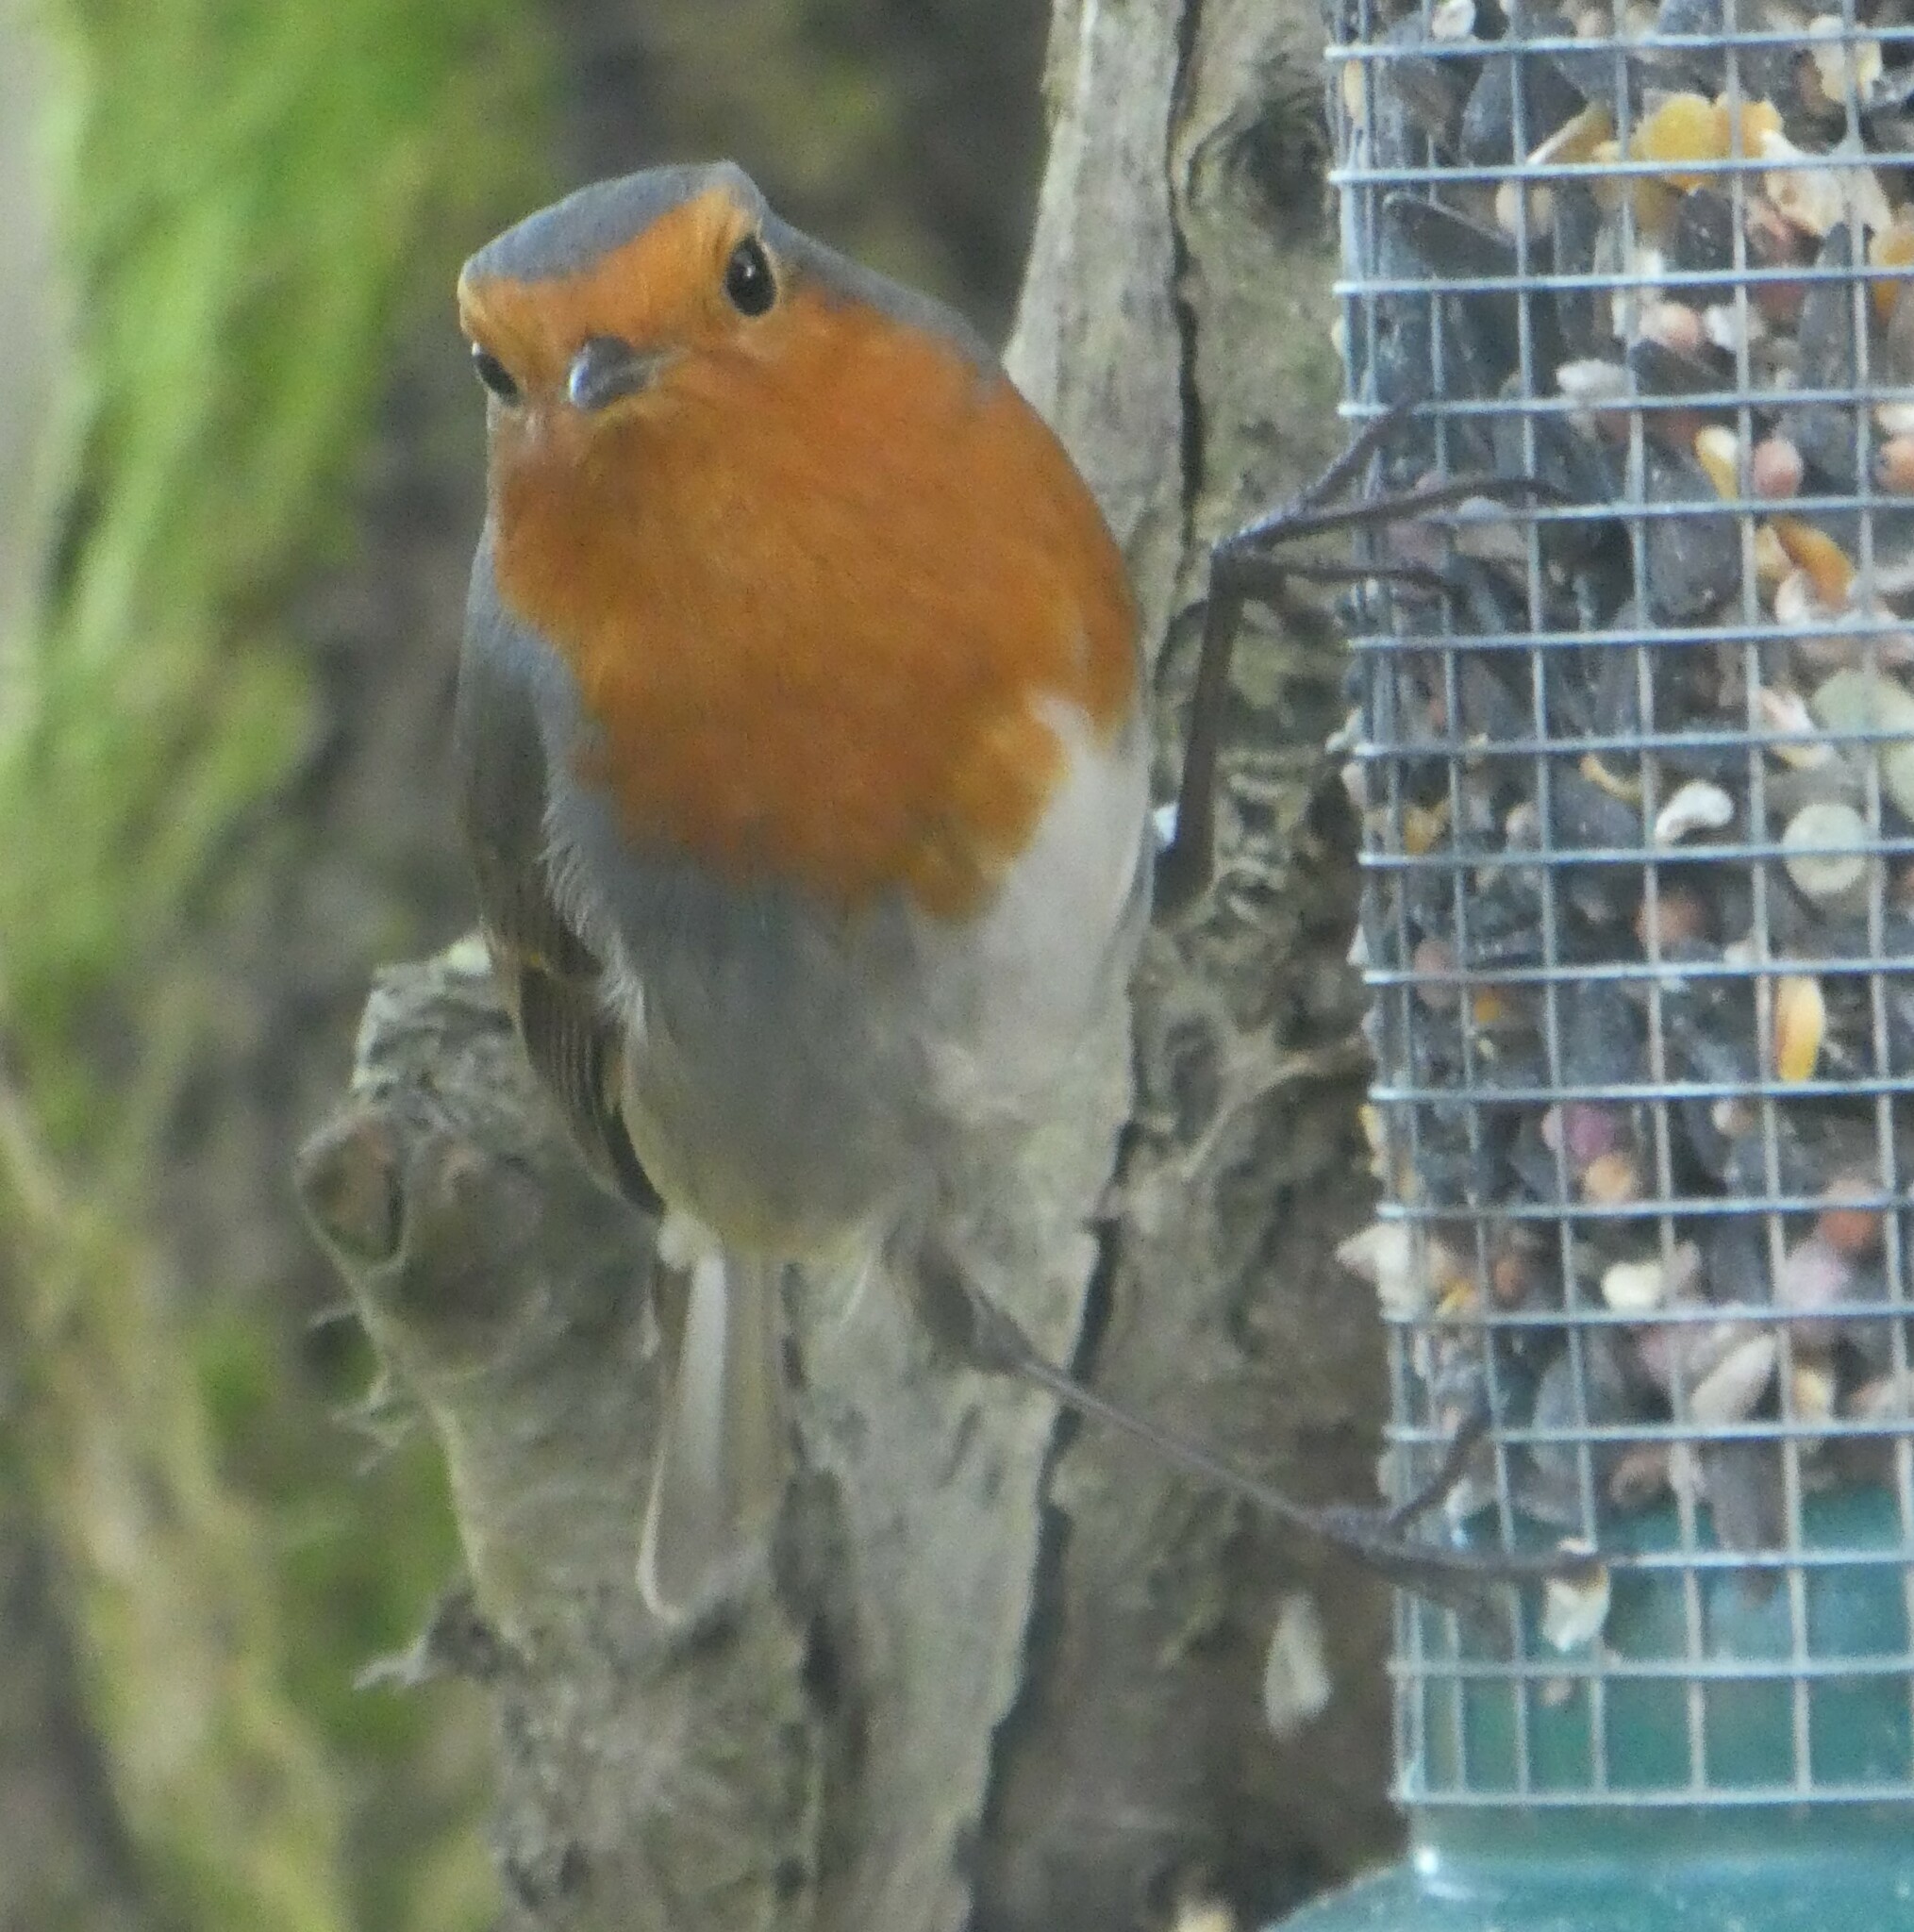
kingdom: Animalia
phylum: Chordata
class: Aves
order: Passeriformes
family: Muscicapidae
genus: Erithacus
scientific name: Erithacus rubecula
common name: European robin
